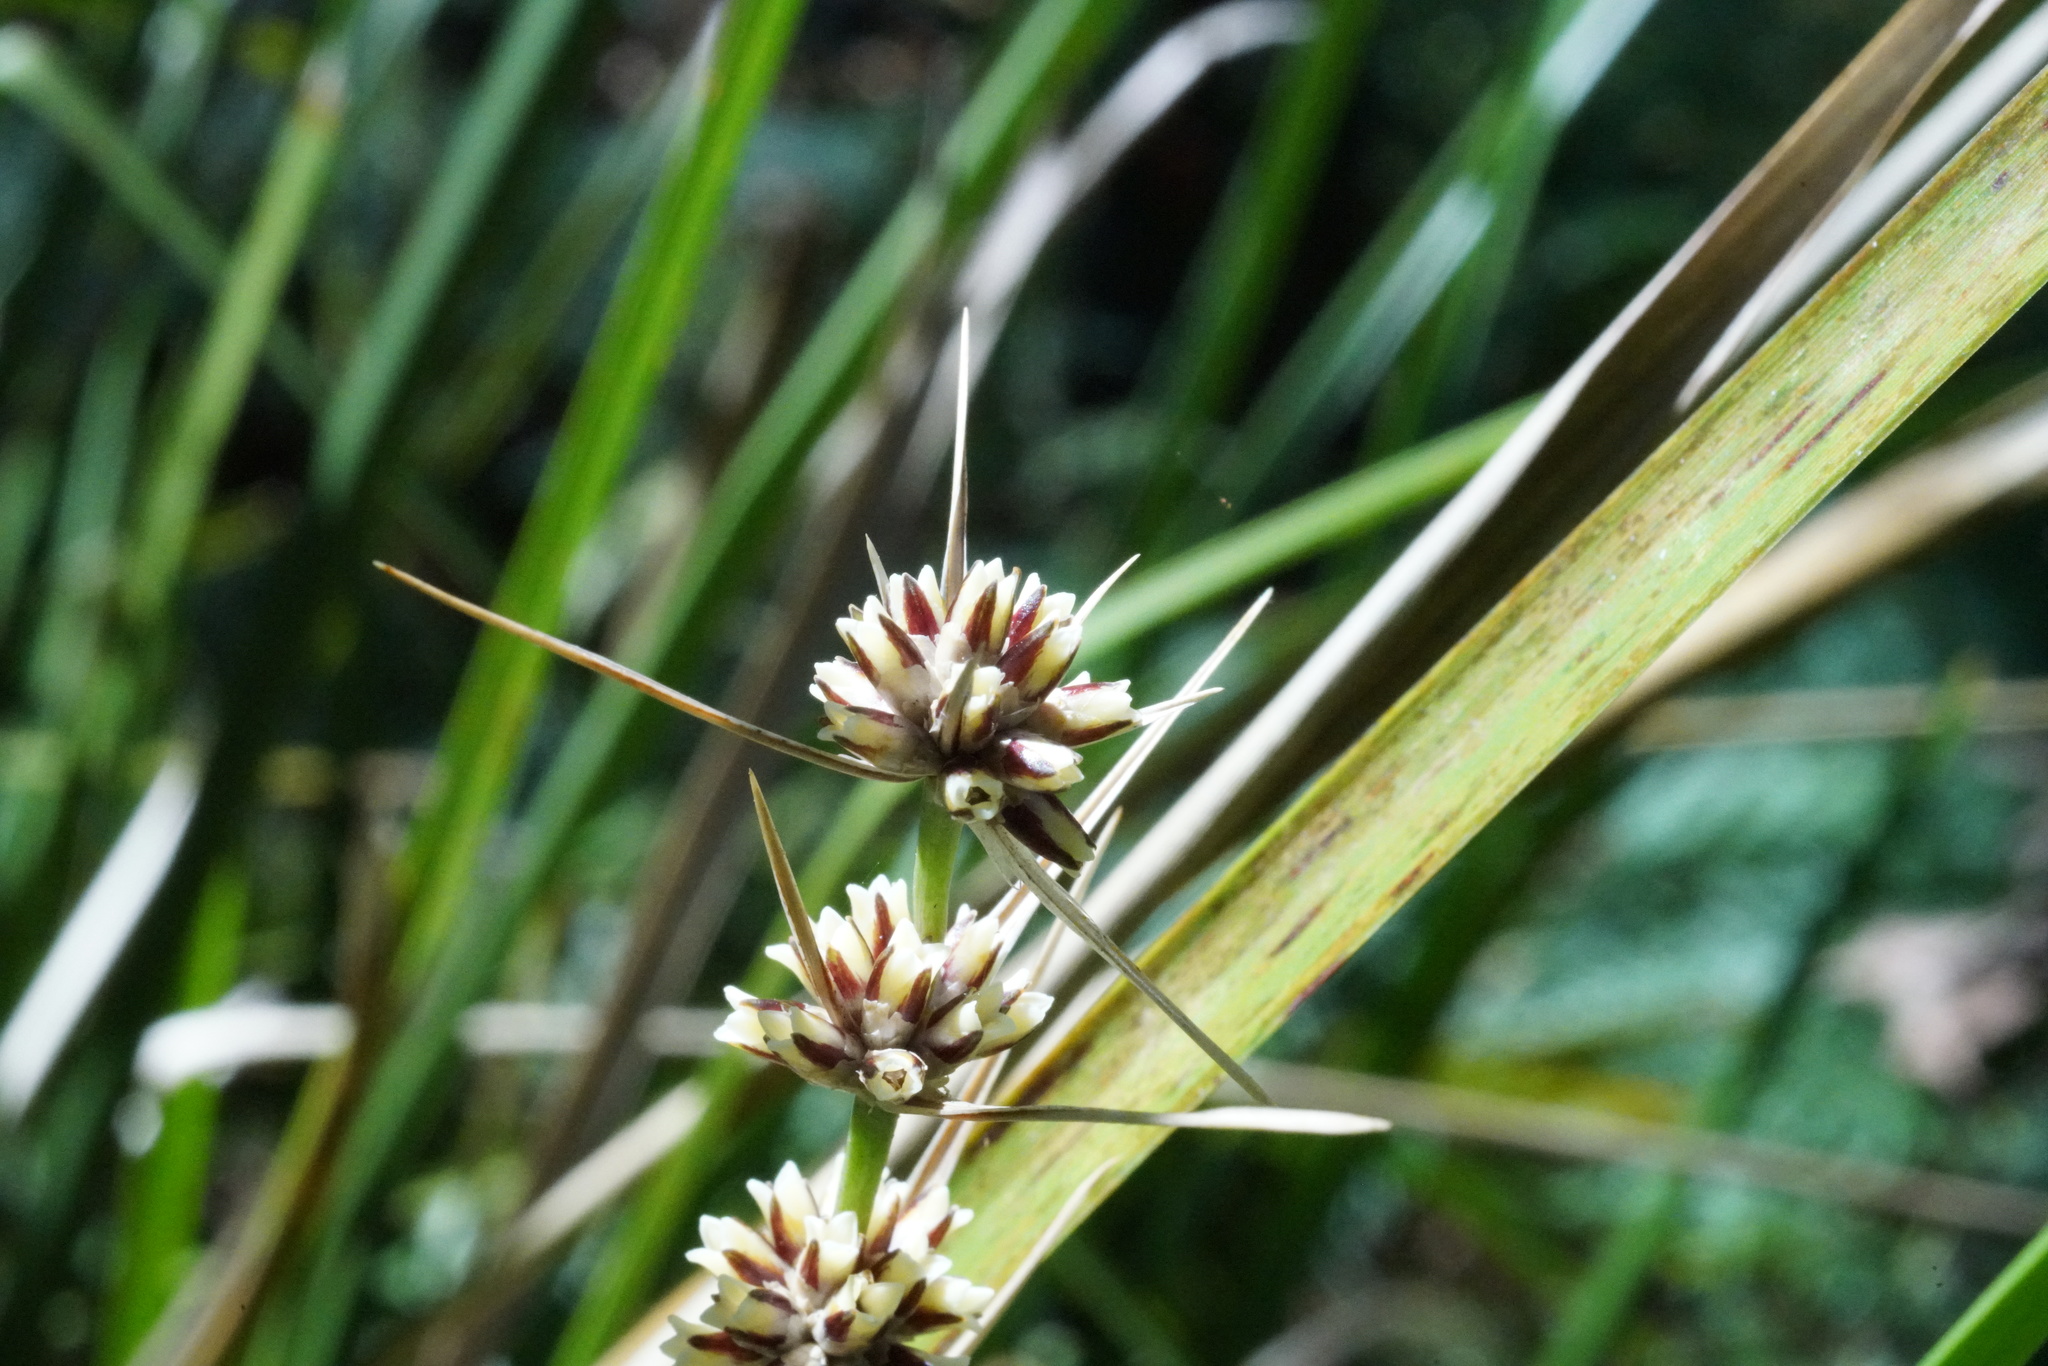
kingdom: Plantae
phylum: Tracheophyta
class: Liliopsida
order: Asparagales
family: Asparagaceae
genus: Lomandra
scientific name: Lomandra longifolia
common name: Longleaf mat-rush
